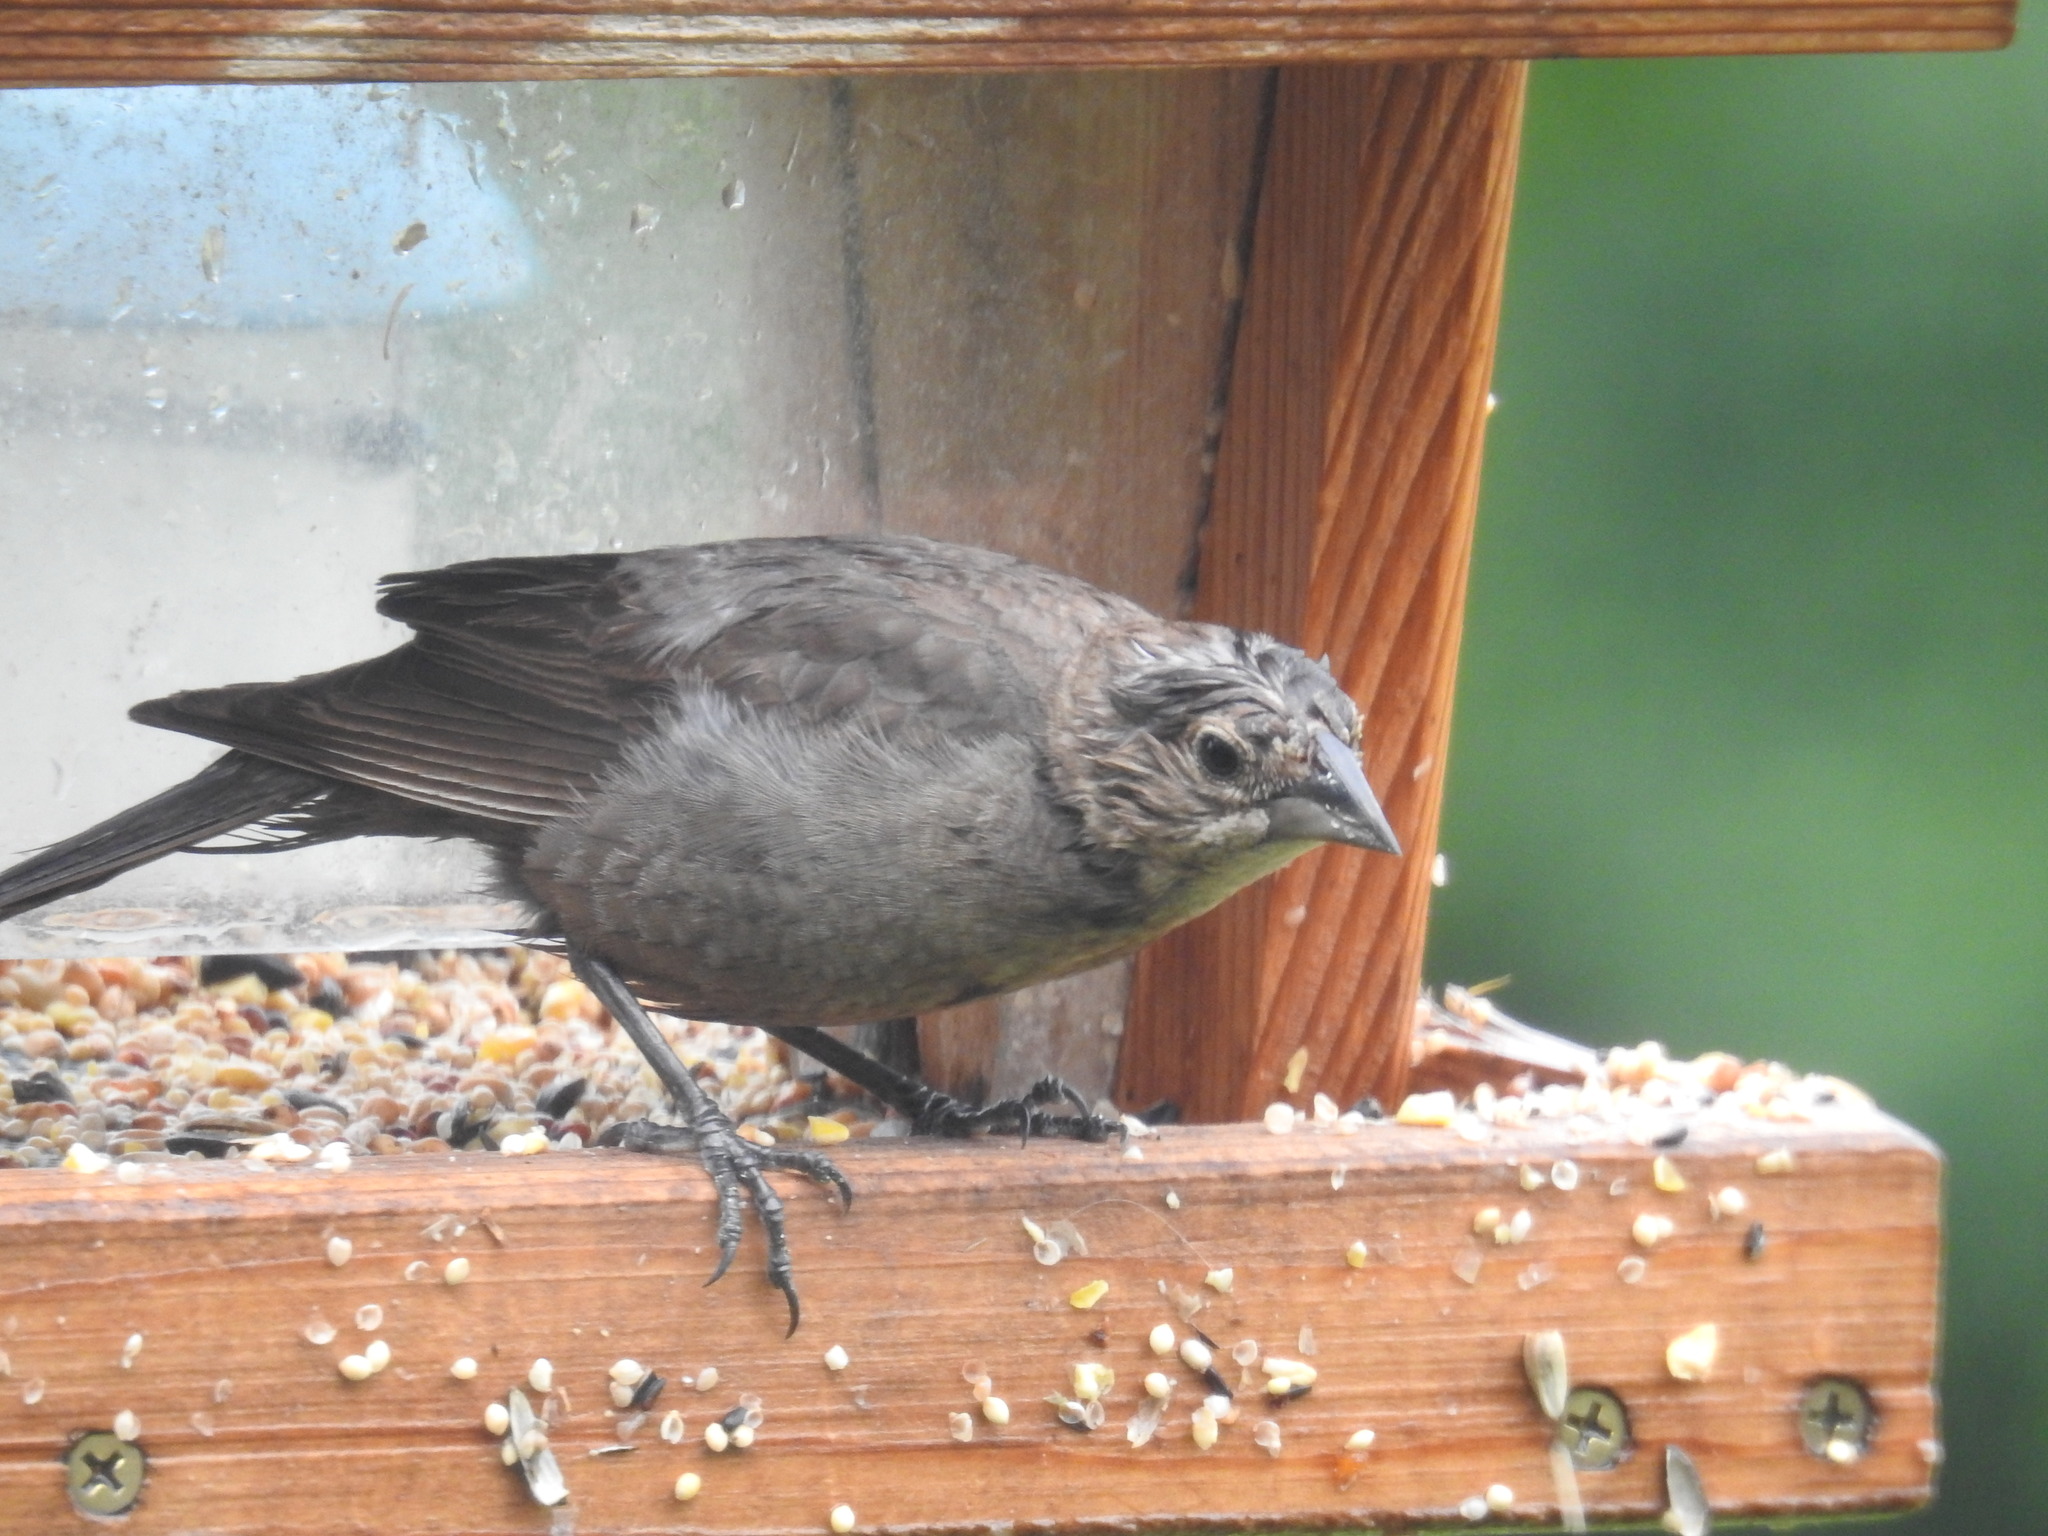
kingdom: Animalia
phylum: Chordata
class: Aves
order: Passeriformes
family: Icteridae
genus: Molothrus
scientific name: Molothrus ater
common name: Brown-headed cowbird
